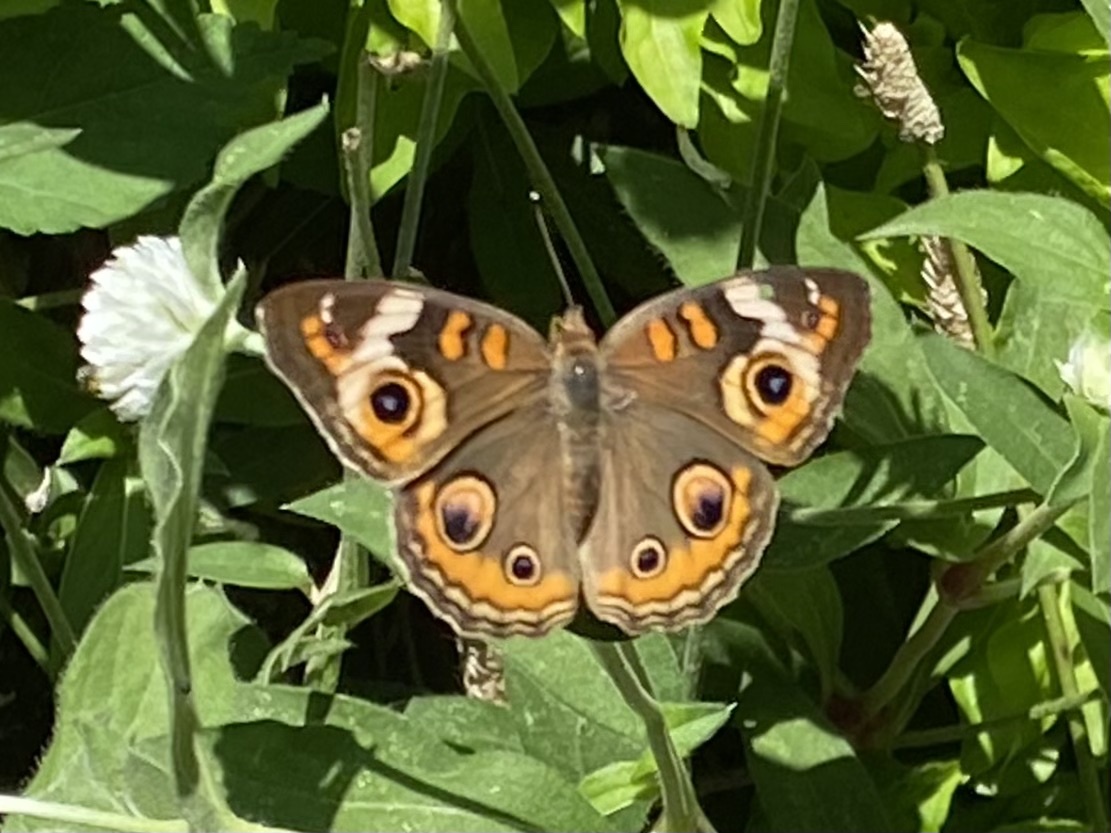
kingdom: Animalia
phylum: Arthropoda
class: Insecta
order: Lepidoptera
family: Nymphalidae
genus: Junonia
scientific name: Junonia coenia
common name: Common buckeye
